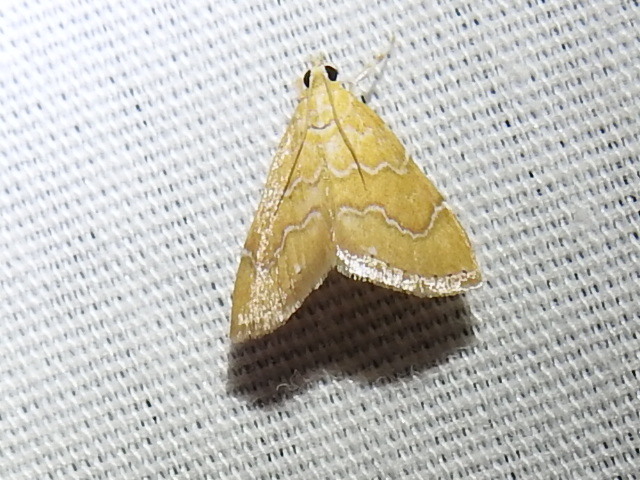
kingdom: Animalia
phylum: Arthropoda
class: Insecta
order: Lepidoptera
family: Crambidae
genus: Glaphyria
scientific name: Glaphyria sesquistrialis
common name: White-roped glaphyria
